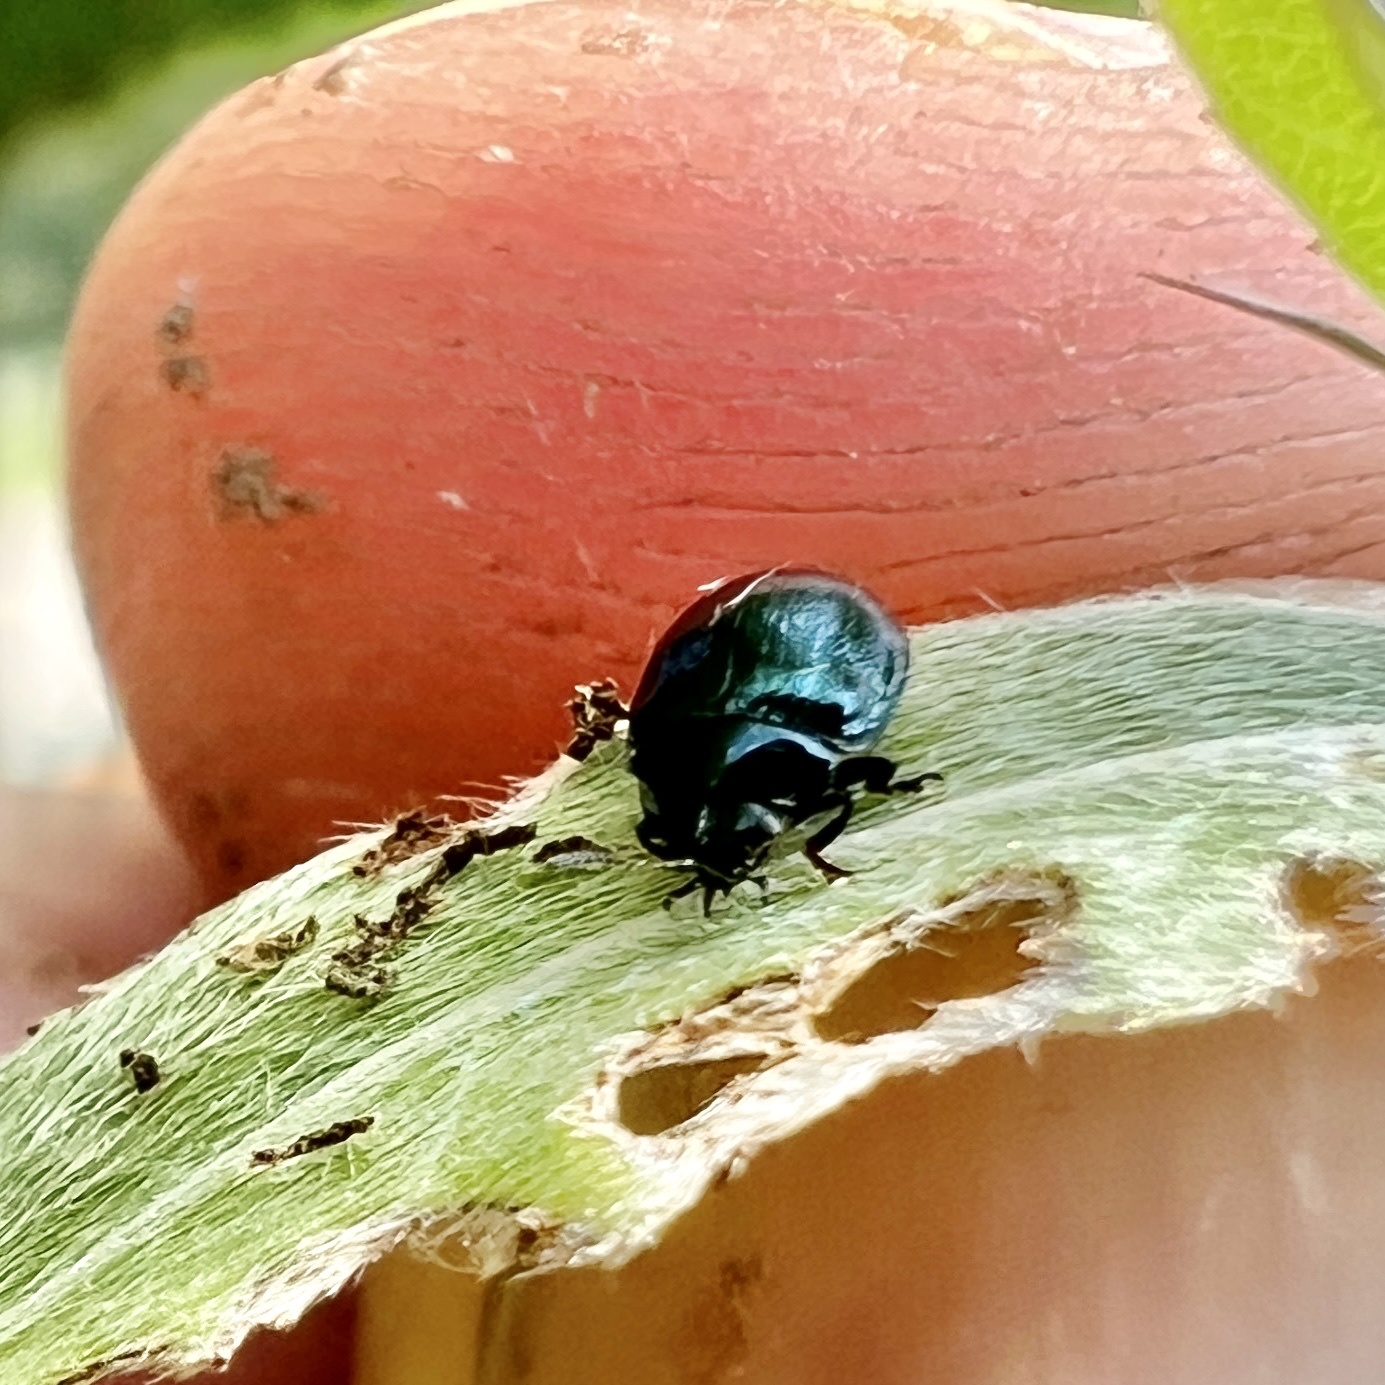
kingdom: Animalia
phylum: Arthropoda
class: Insecta
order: Coleoptera
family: Chrysomelidae
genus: Plagiodera
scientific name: Plagiodera versicolora
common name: Imported willow leaf beetle
